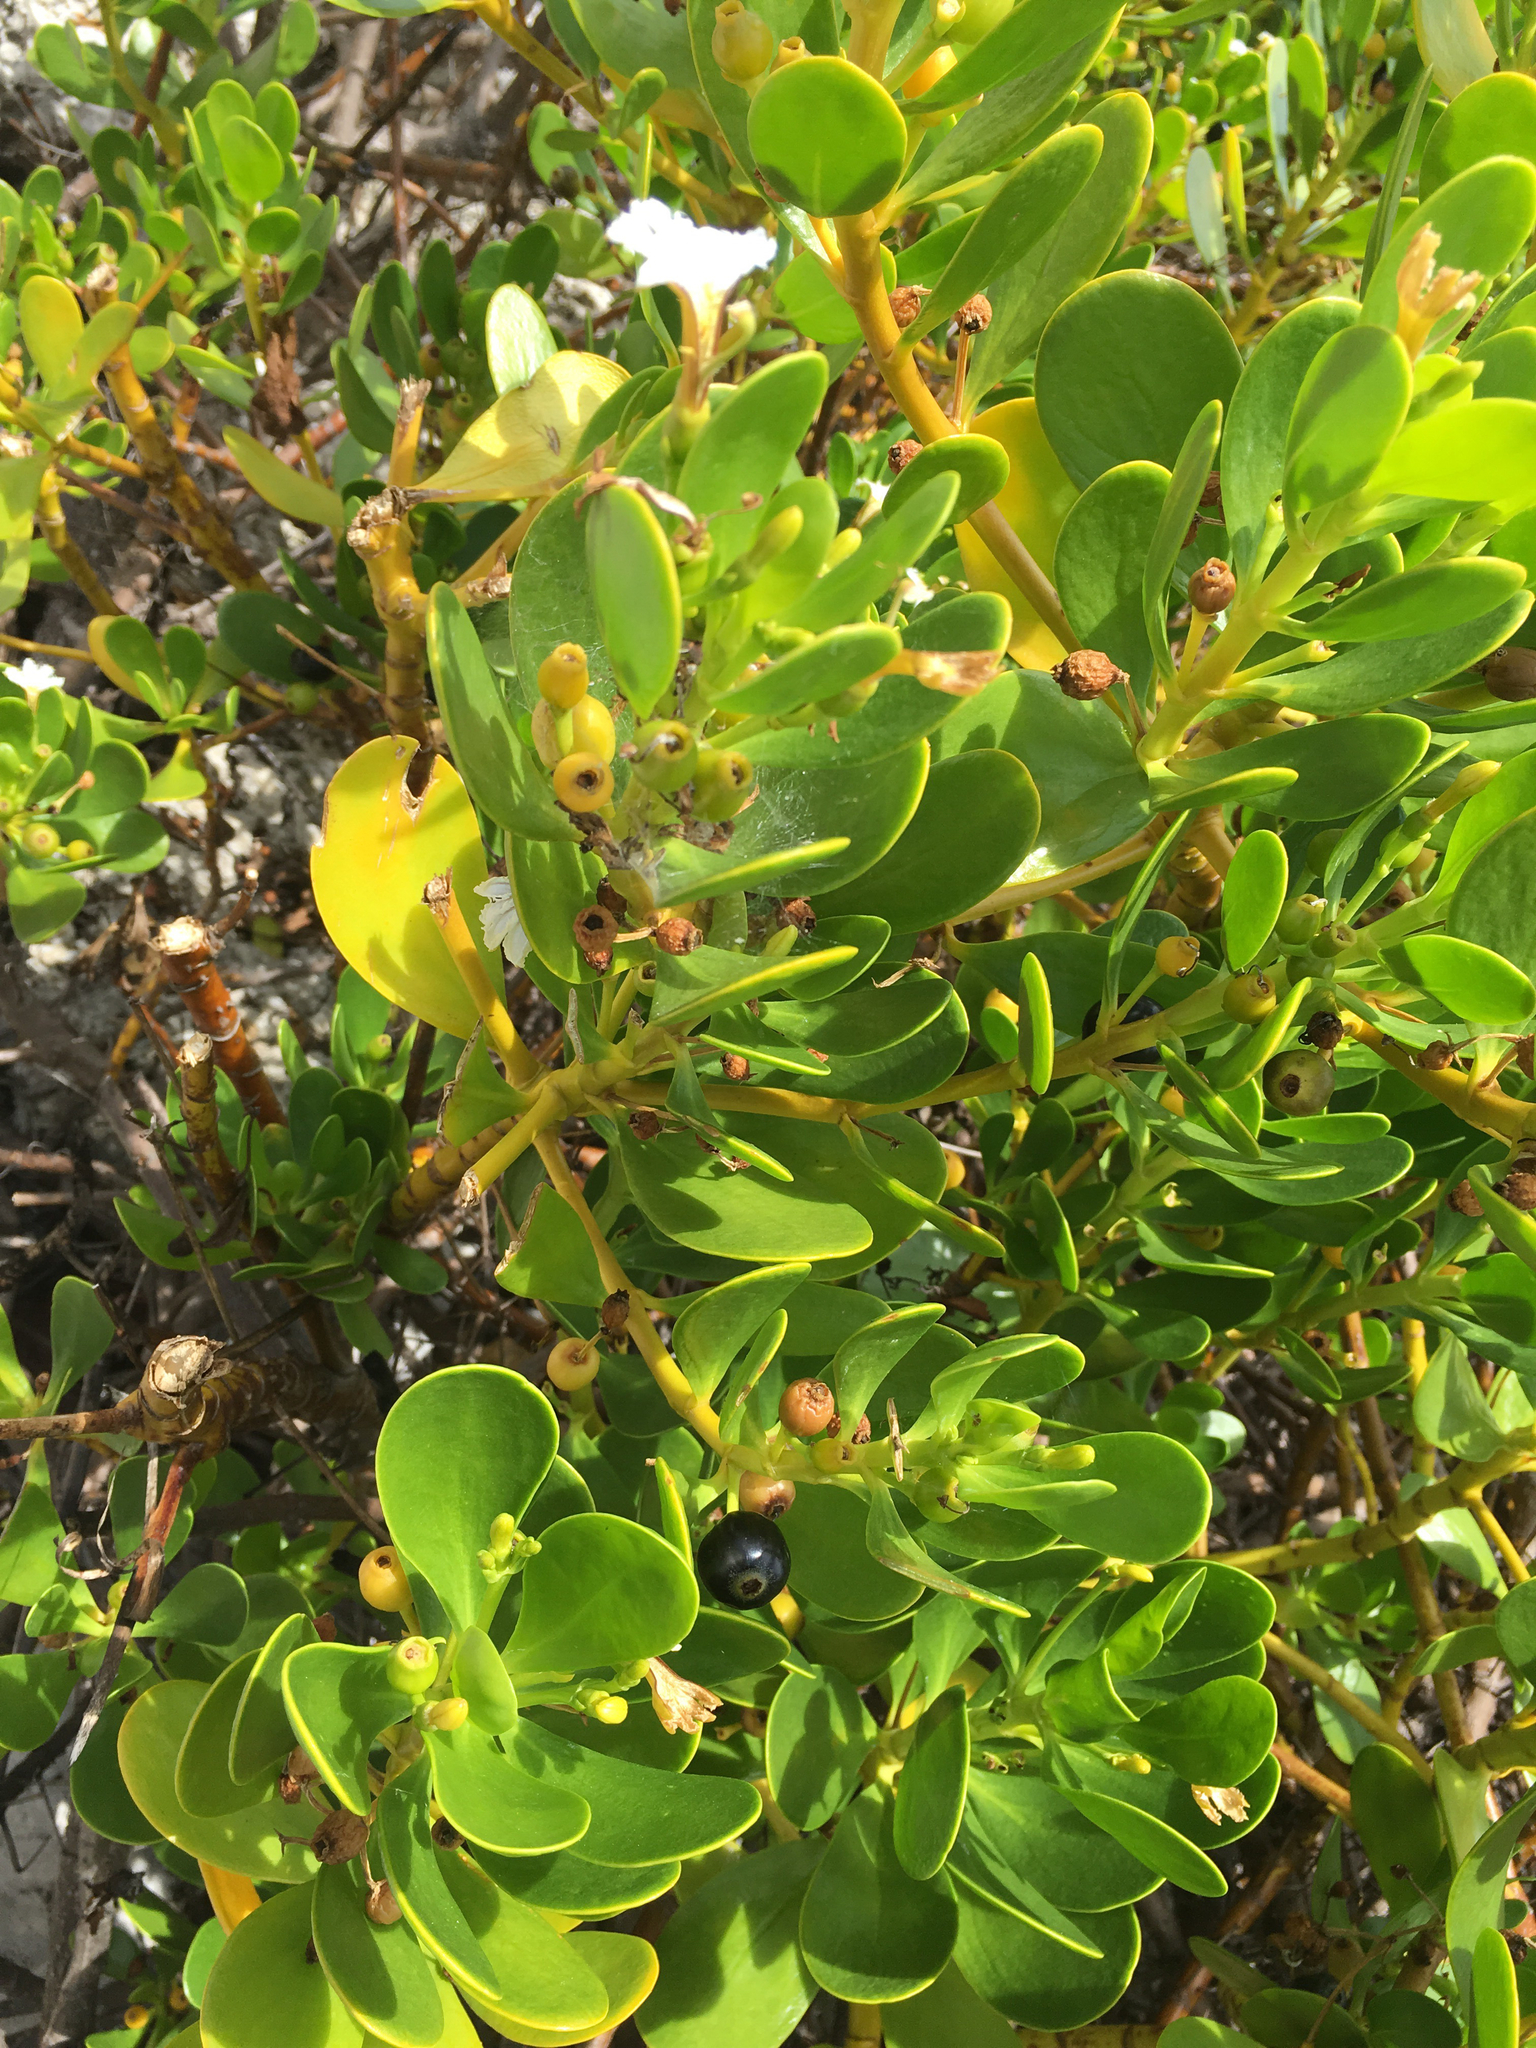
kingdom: Plantae
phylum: Tracheophyta
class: Magnoliopsida
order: Asterales
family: Goodeniaceae
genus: Scaevola
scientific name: Scaevola plumieri
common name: Gull feed
